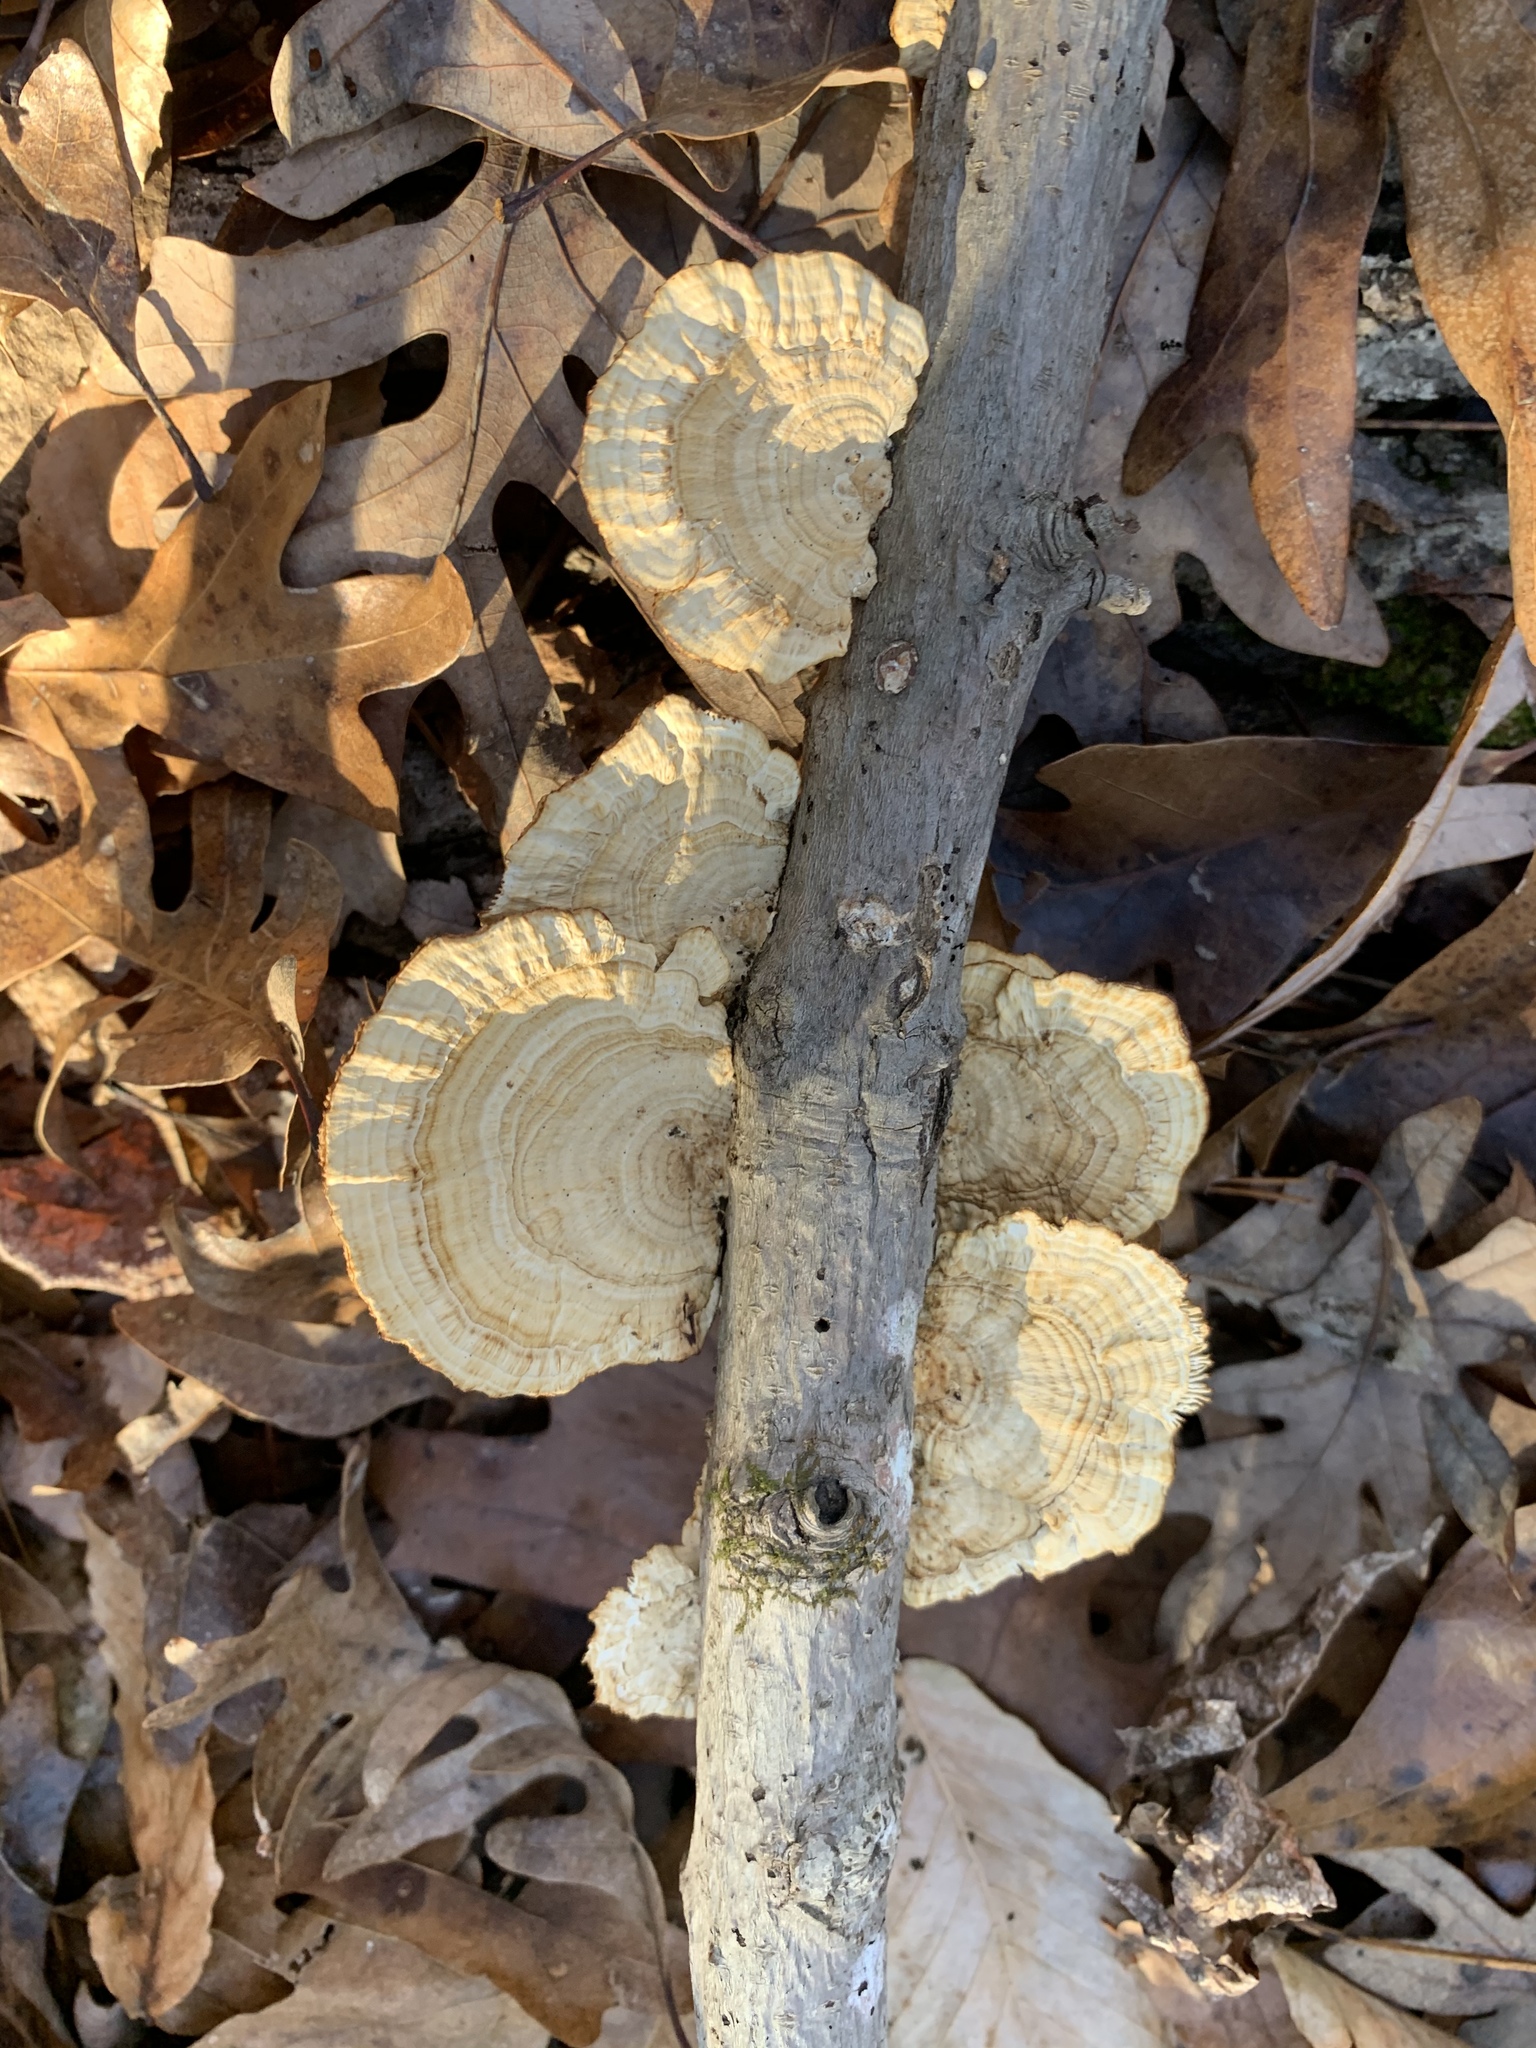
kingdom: Fungi
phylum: Basidiomycota
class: Agaricomycetes
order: Polyporales
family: Polyporaceae
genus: Daedaleopsis
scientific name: Daedaleopsis confragosa
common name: Blushing bracket
